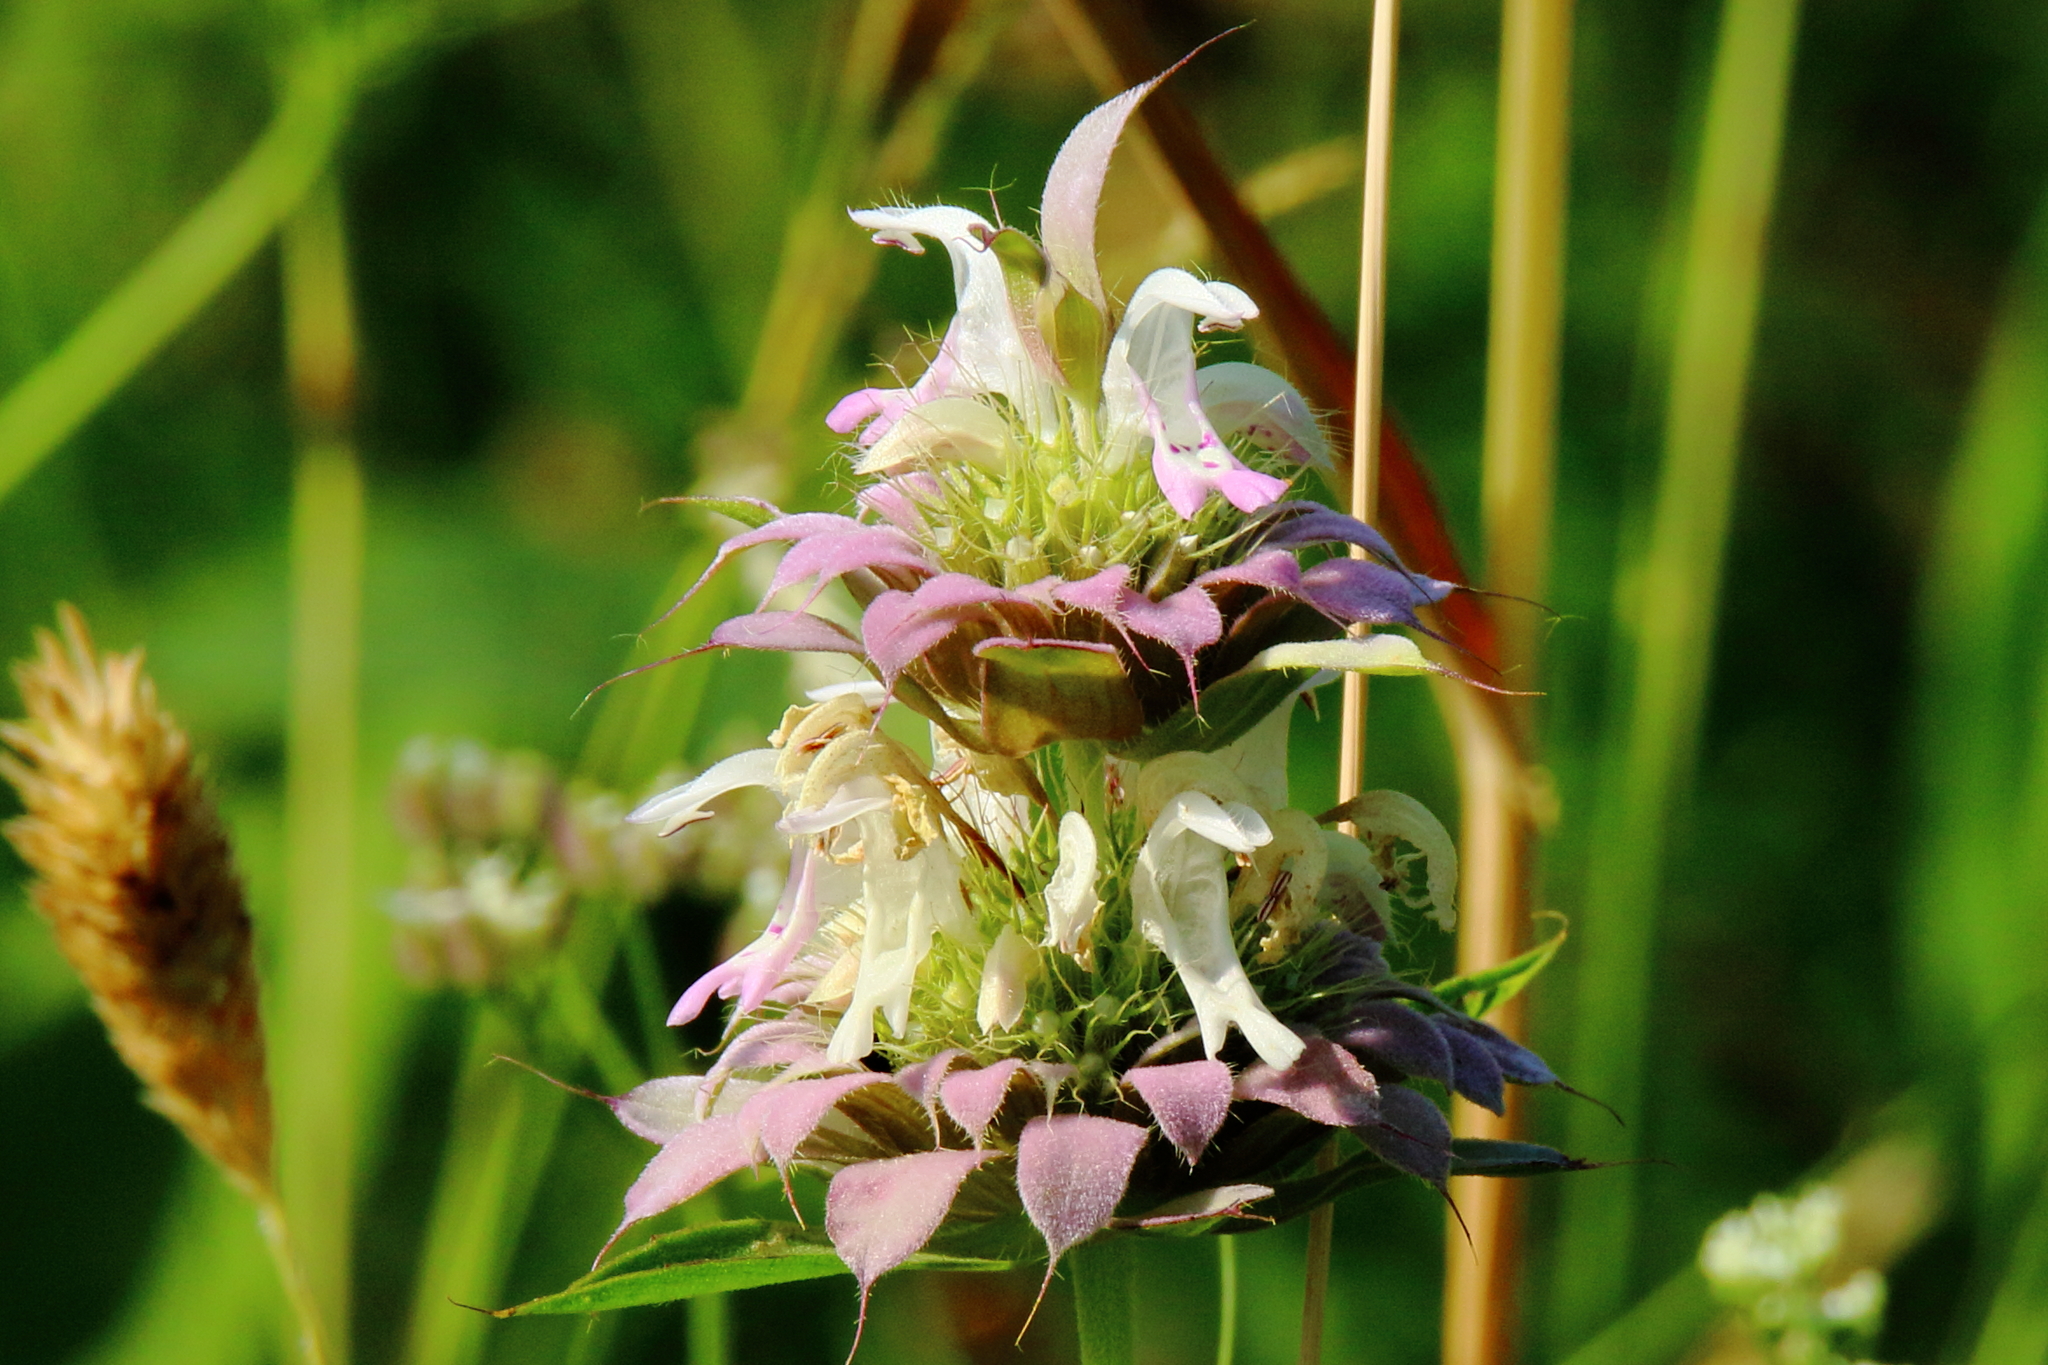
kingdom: Plantae
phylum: Tracheophyta
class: Magnoliopsida
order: Lamiales
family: Lamiaceae
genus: Monarda
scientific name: Monarda citriodora
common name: Lemon beebalm
